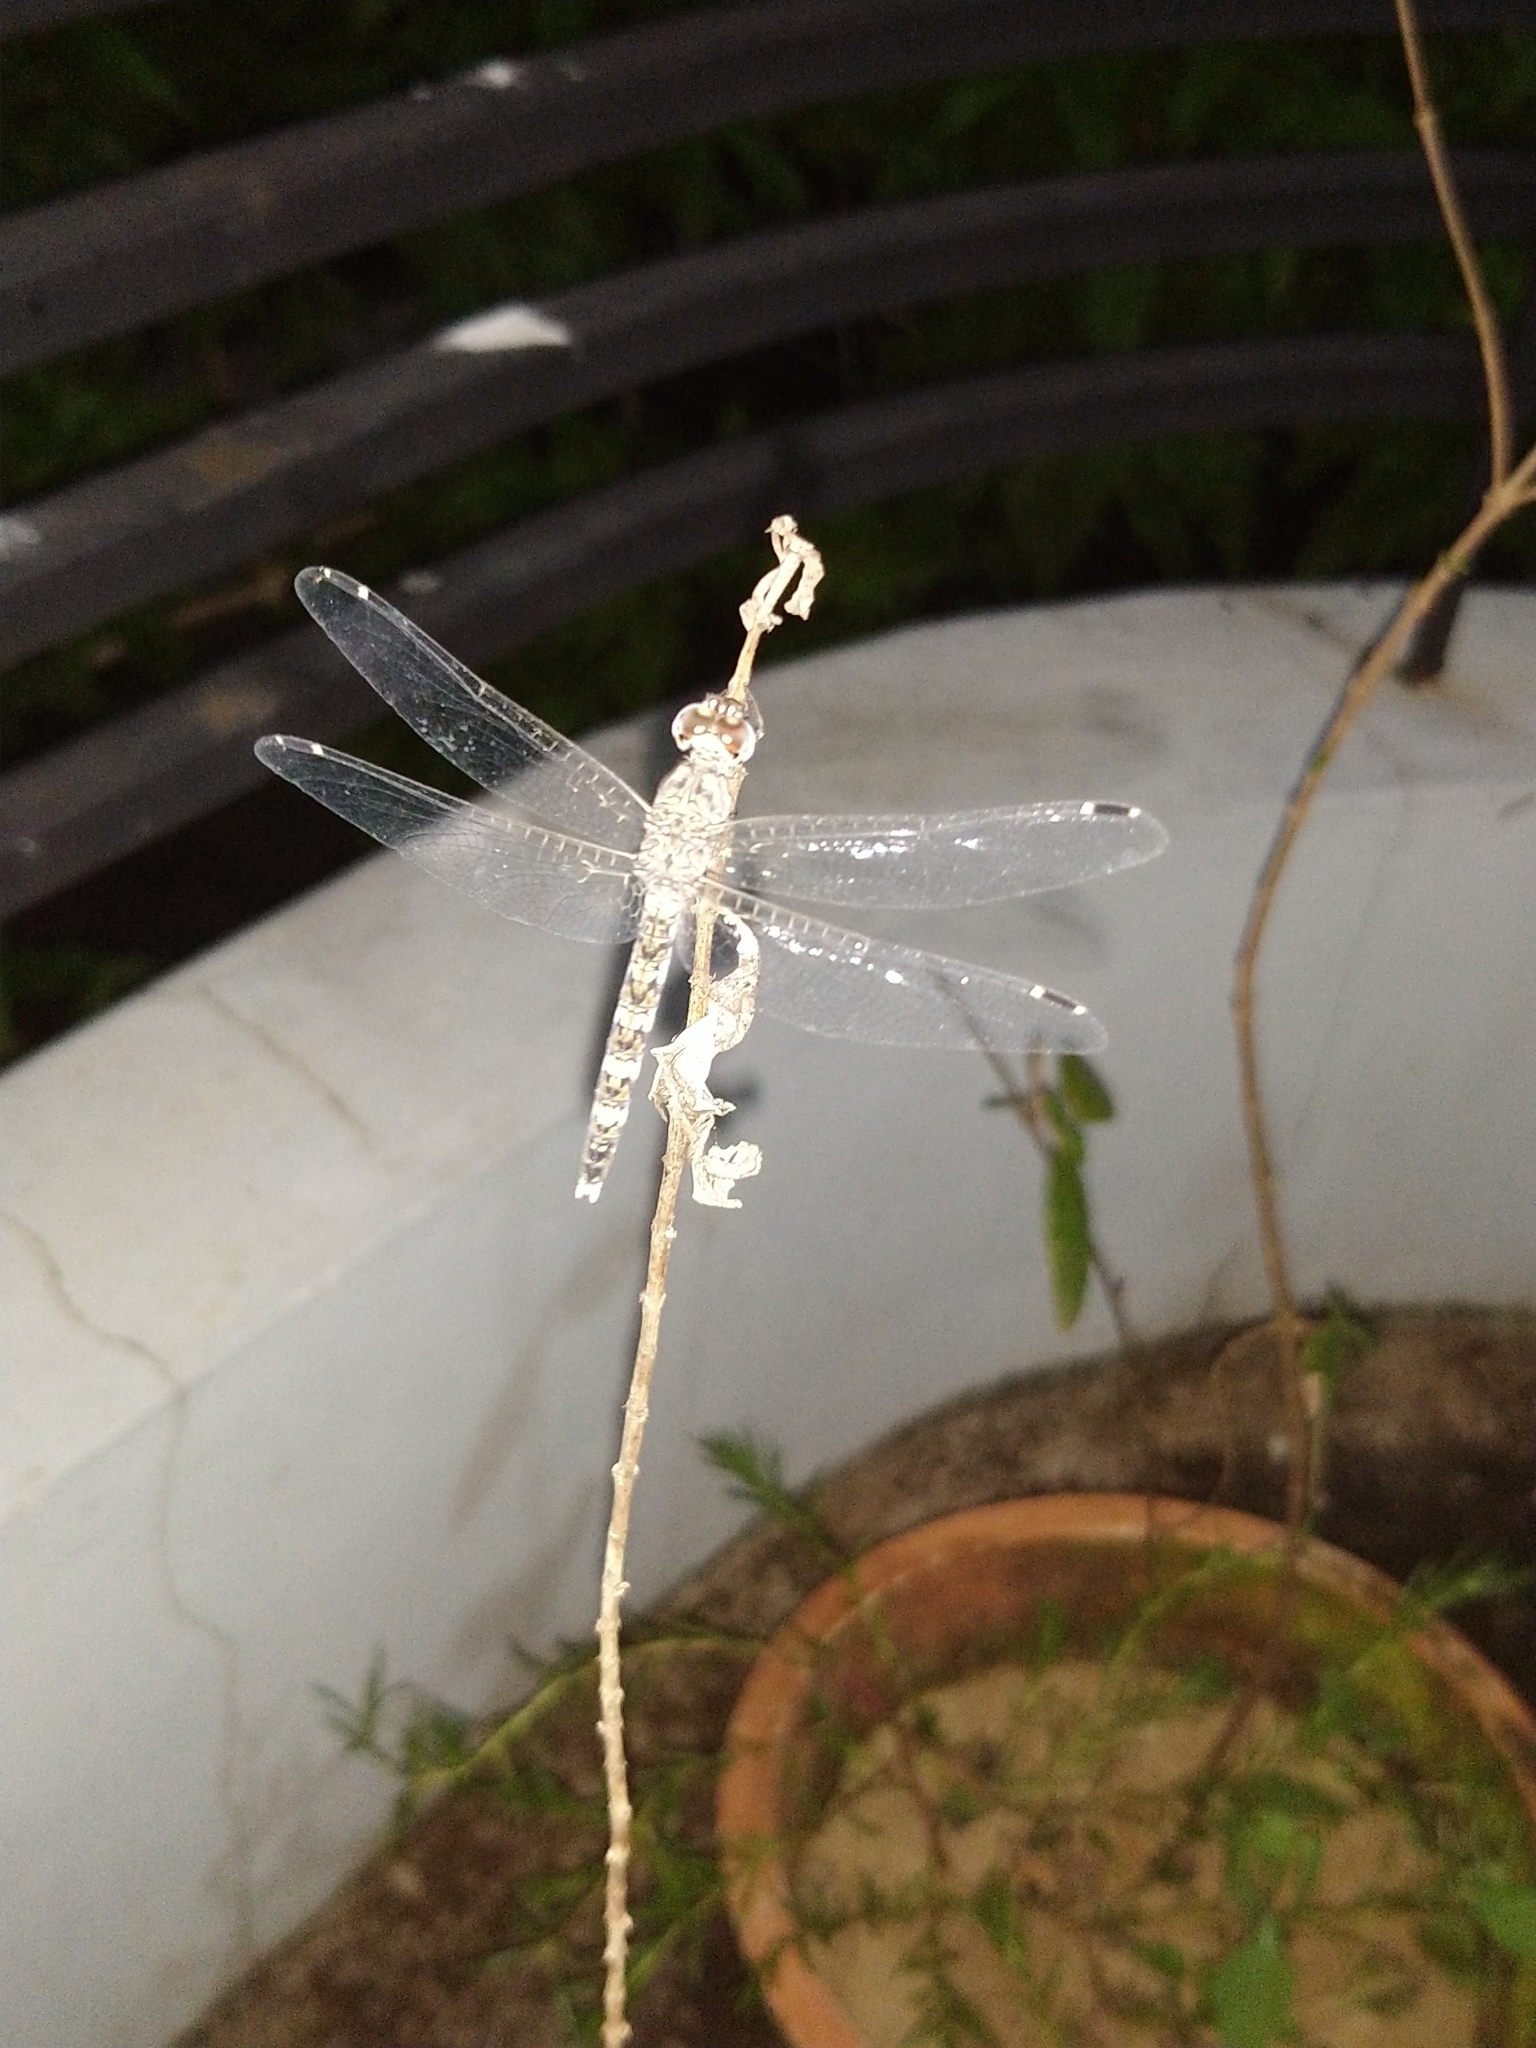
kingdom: Animalia
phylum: Arthropoda
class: Insecta
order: Odonata
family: Libellulidae
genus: Bradinopyga
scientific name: Bradinopyga geminata
